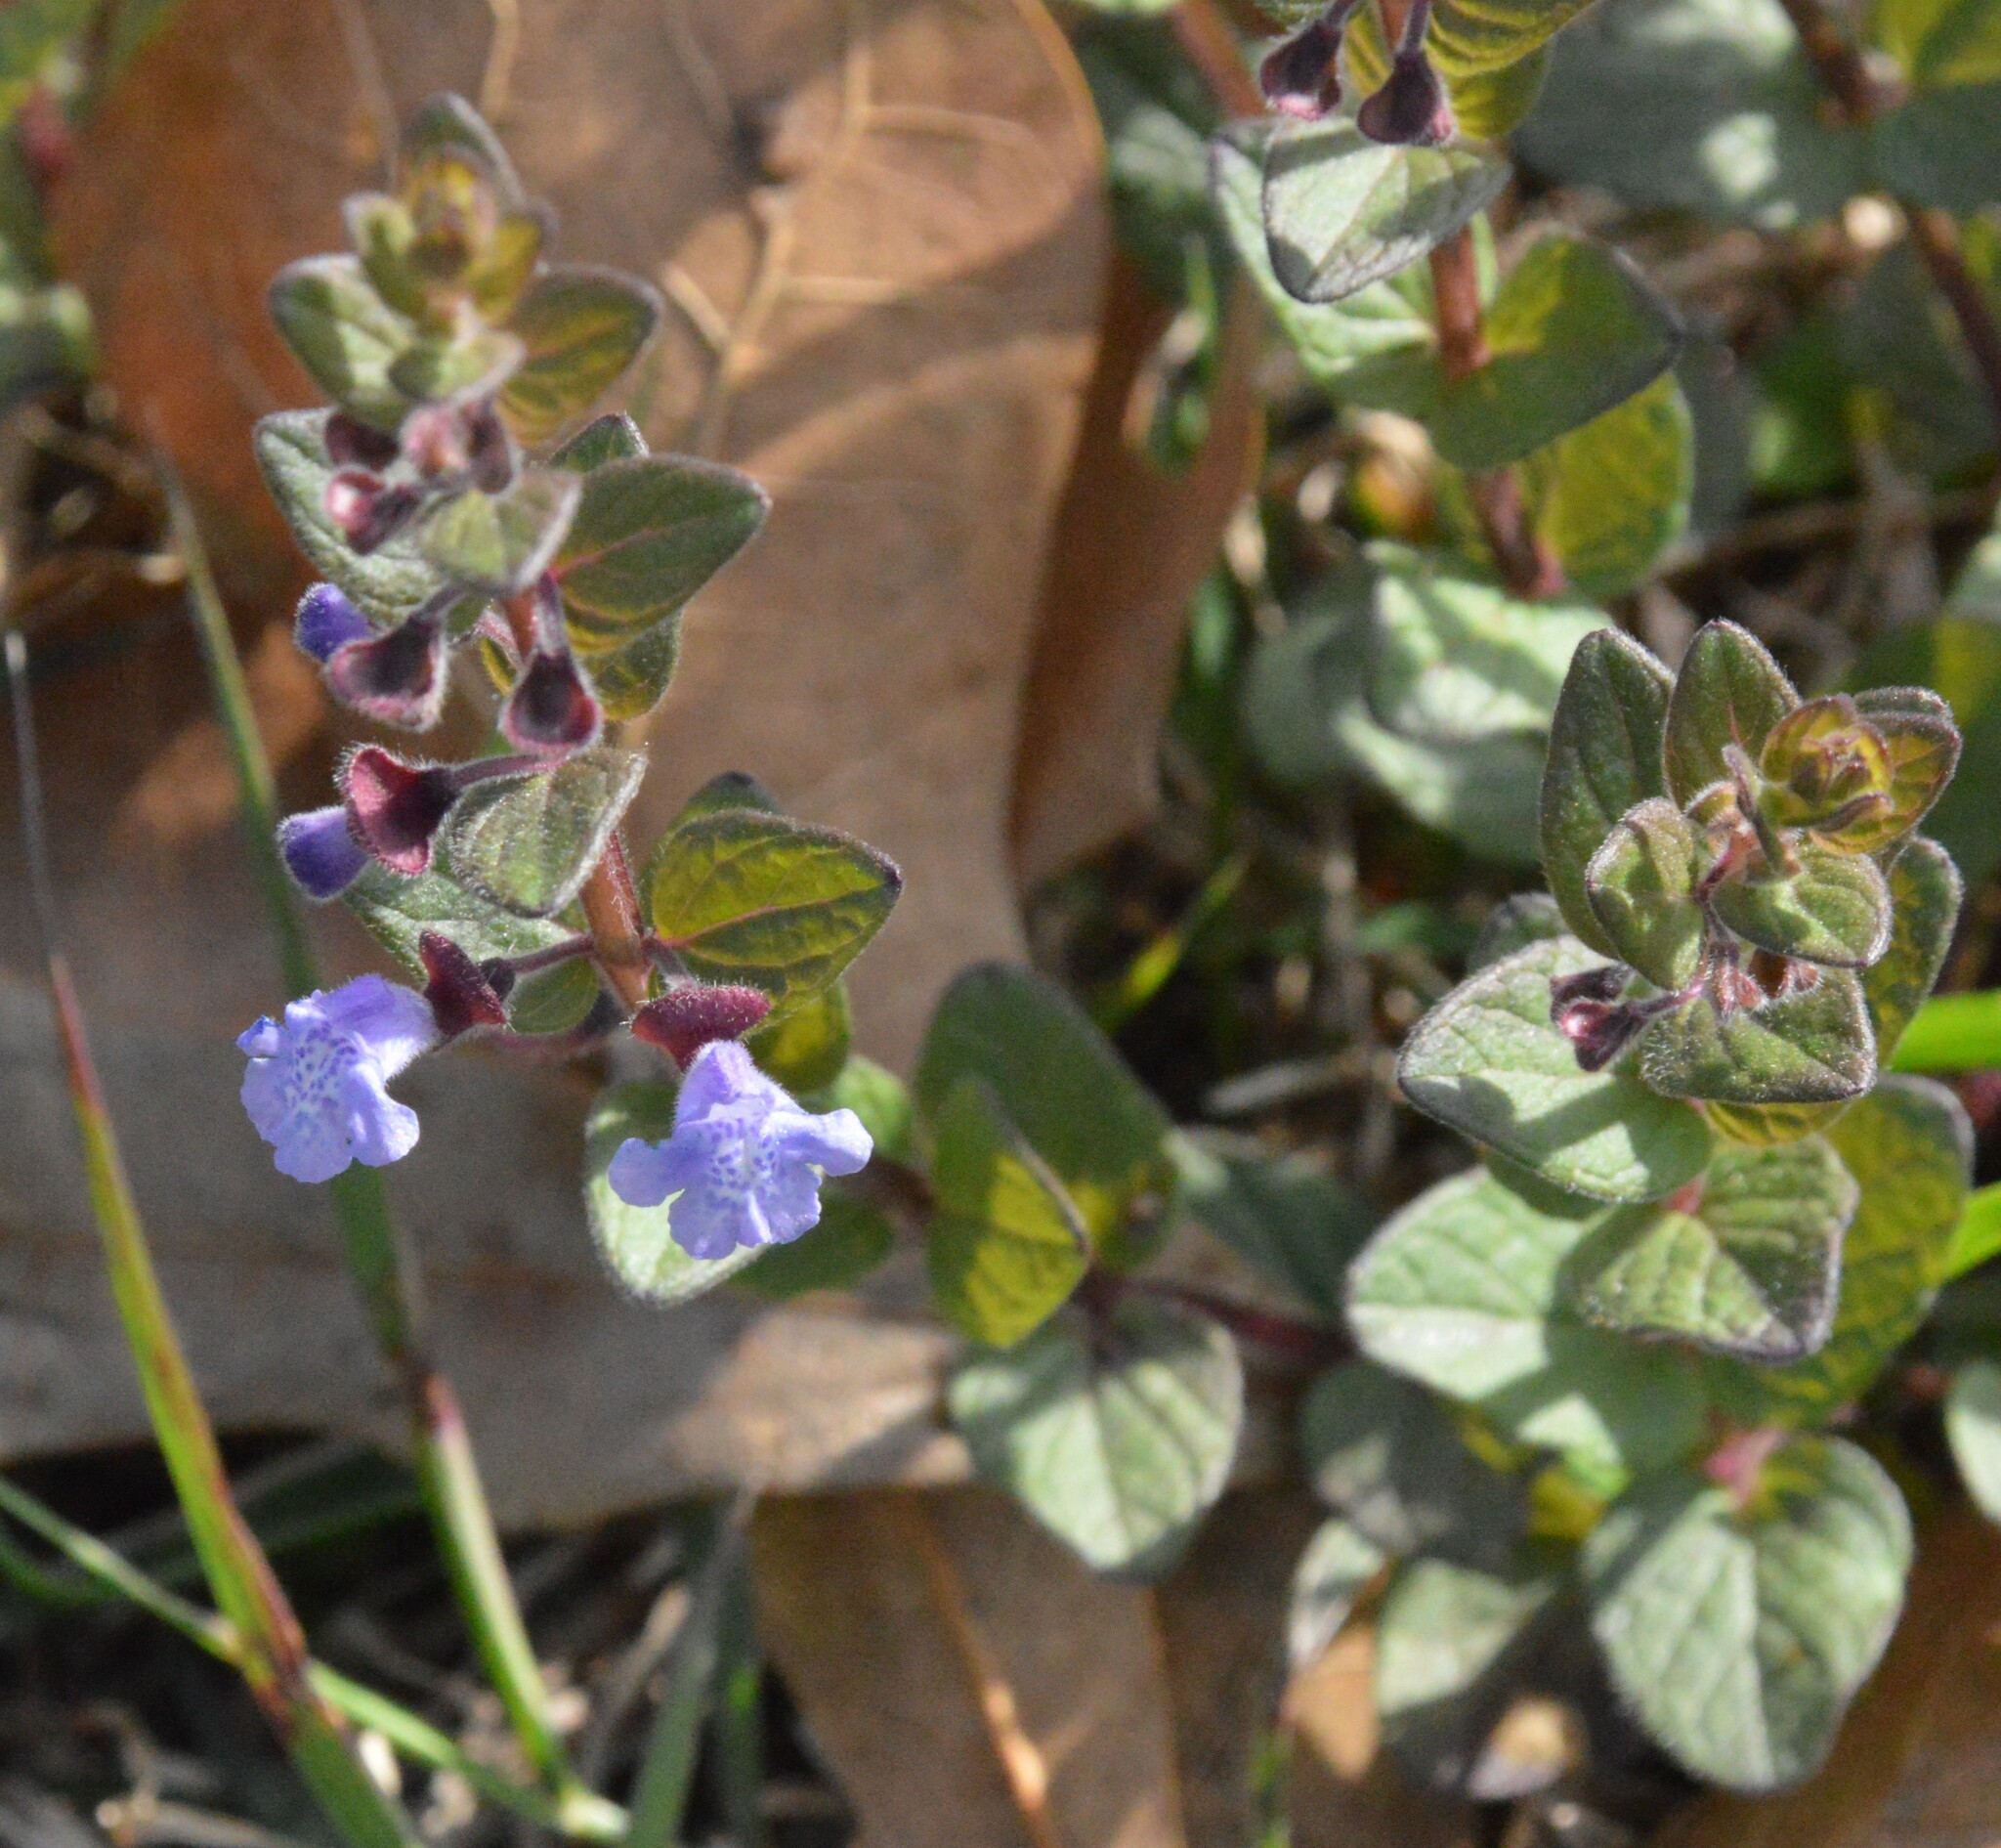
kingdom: Plantae
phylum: Tracheophyta
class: Magnoliopsida
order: Lamiales
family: Lamiaceae
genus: Scutellaria
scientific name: Scutellaria parvula
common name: Little scullcap
